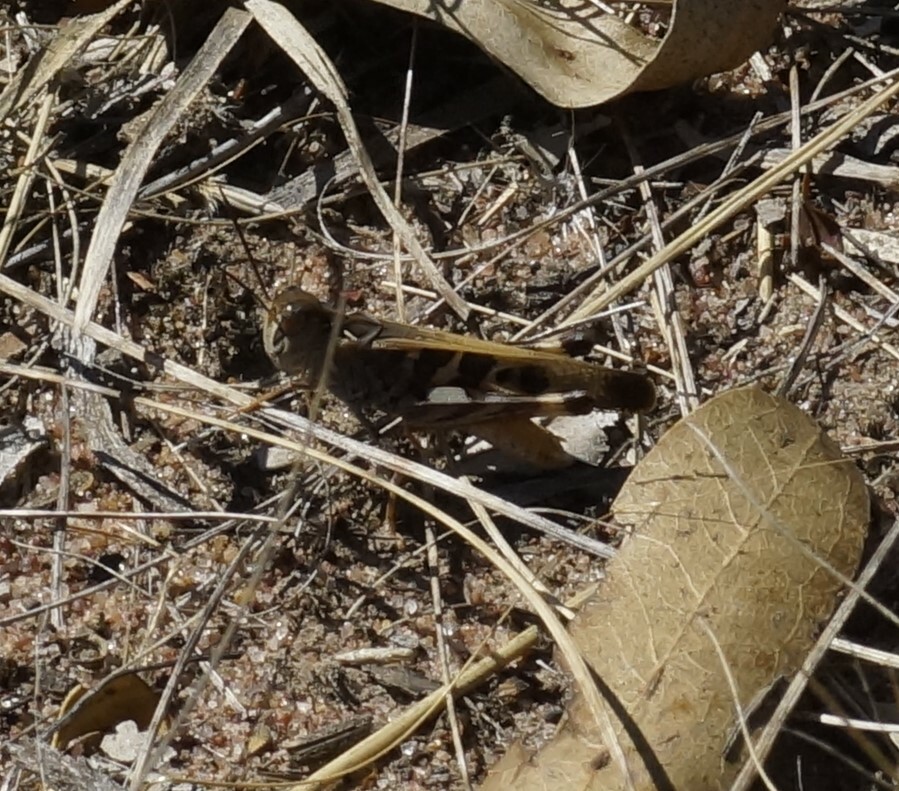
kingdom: Animalia
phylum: Arthropoda
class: Insecta
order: Orthoptera
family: Acrididae
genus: Oedaleus
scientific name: Oedaleus australis
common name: Eastern oedaleus
